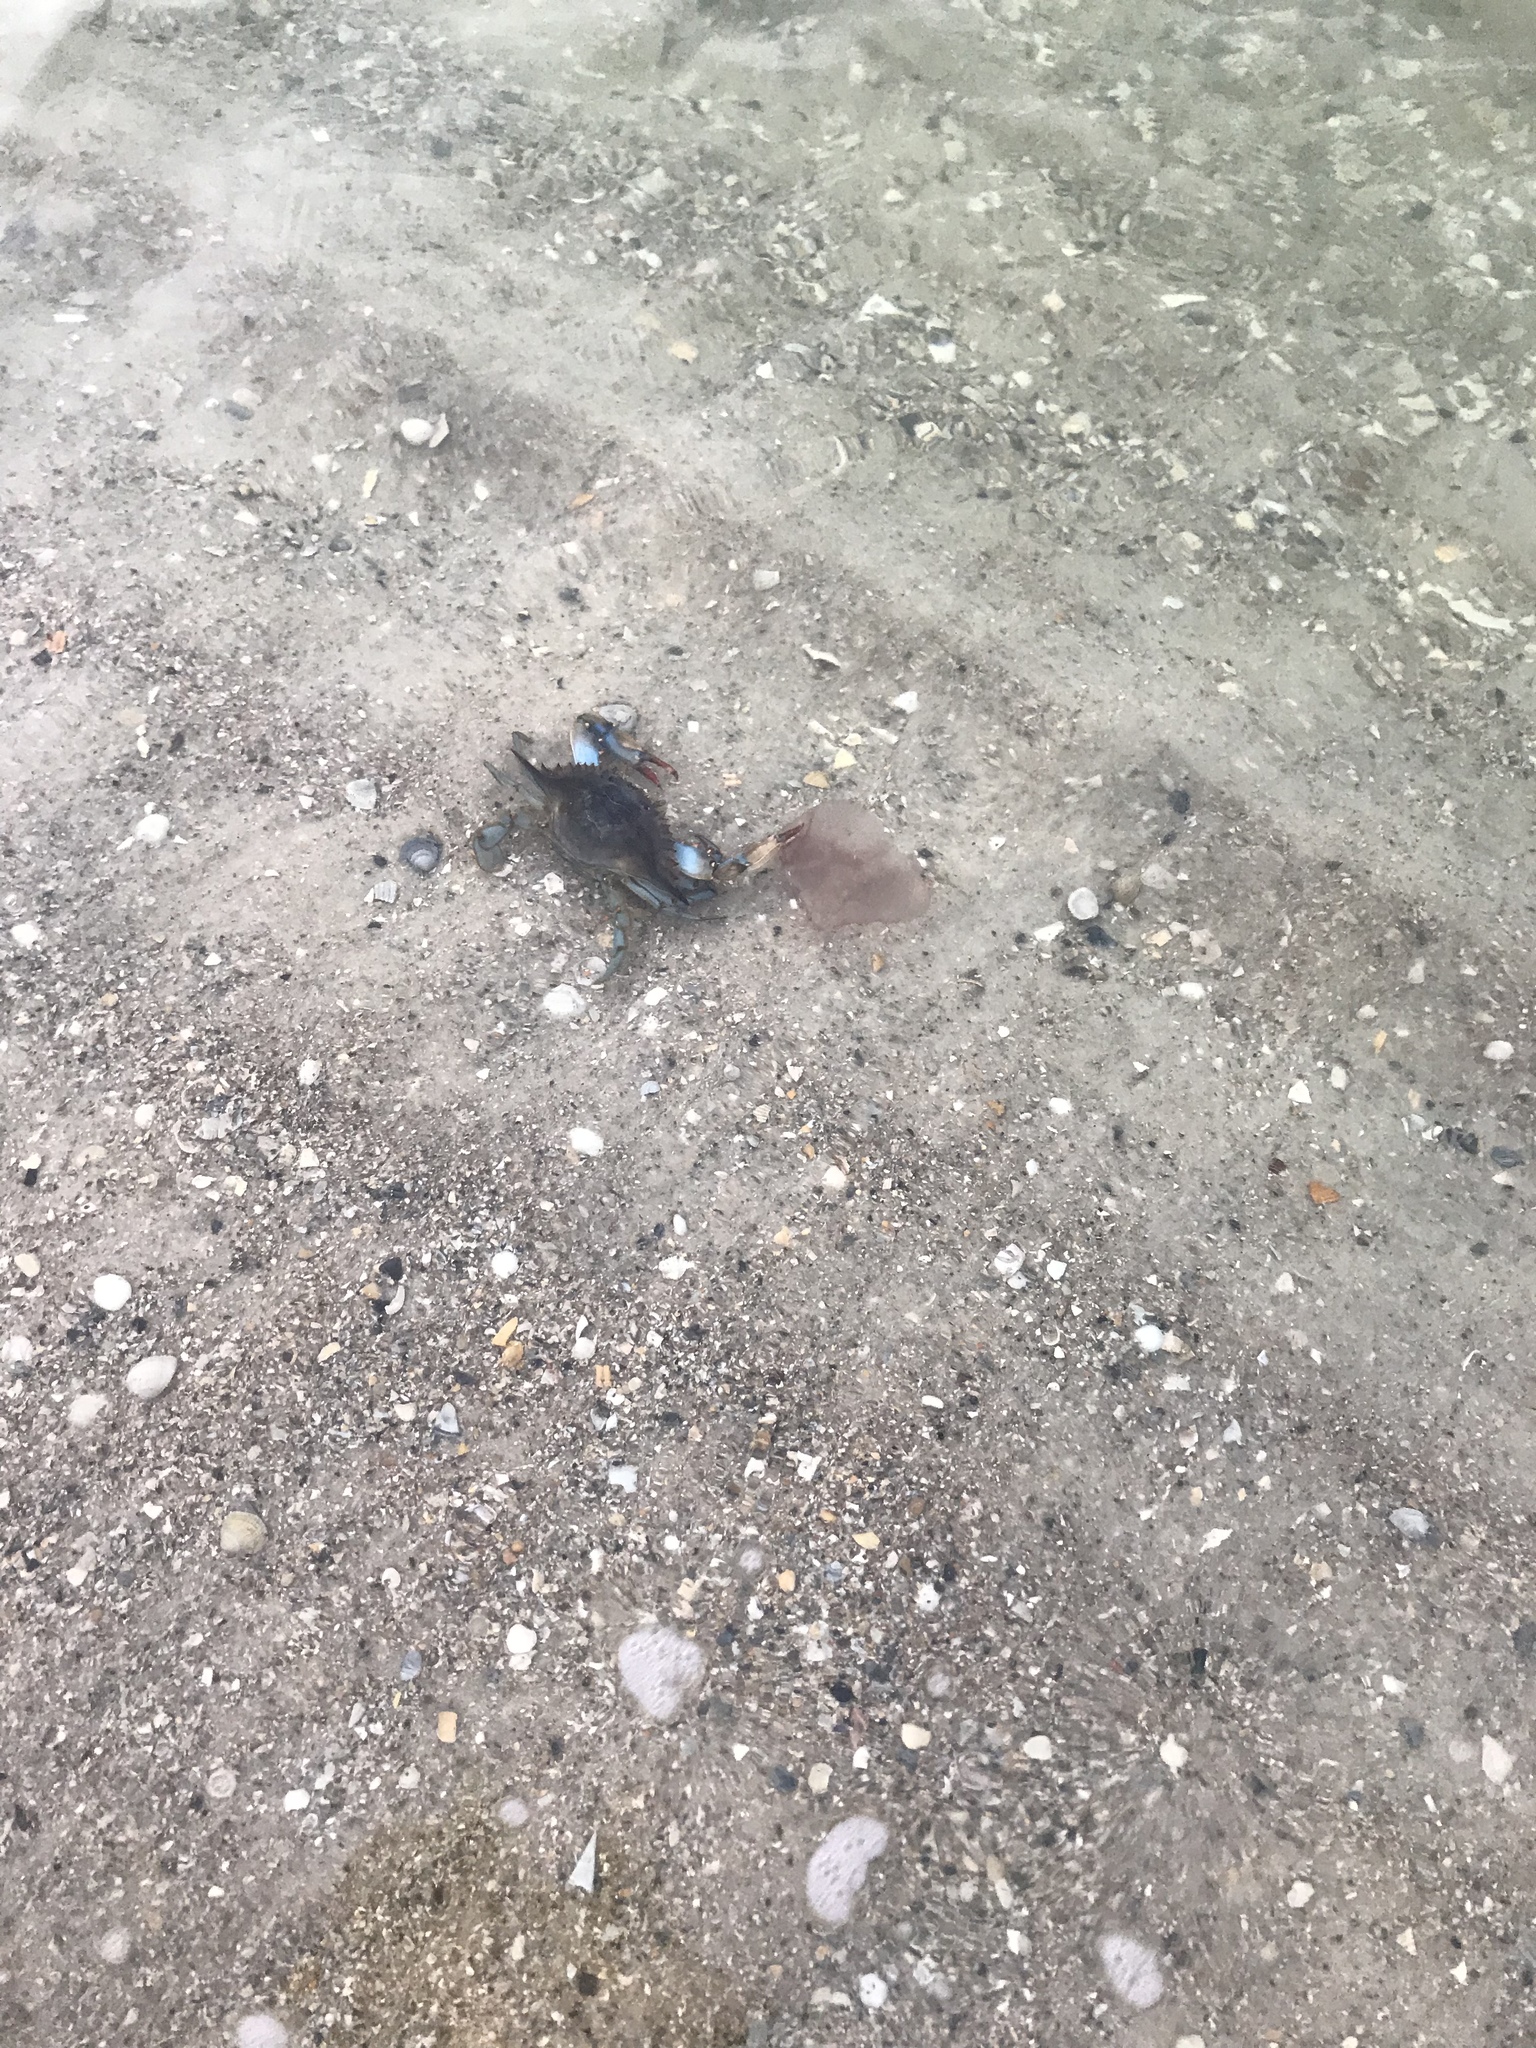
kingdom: Animalia
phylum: Arthropoda
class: Malacostraca
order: Decapoda
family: Portunidae
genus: Callinectes
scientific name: Callinectes sapidus
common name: Blue crab
